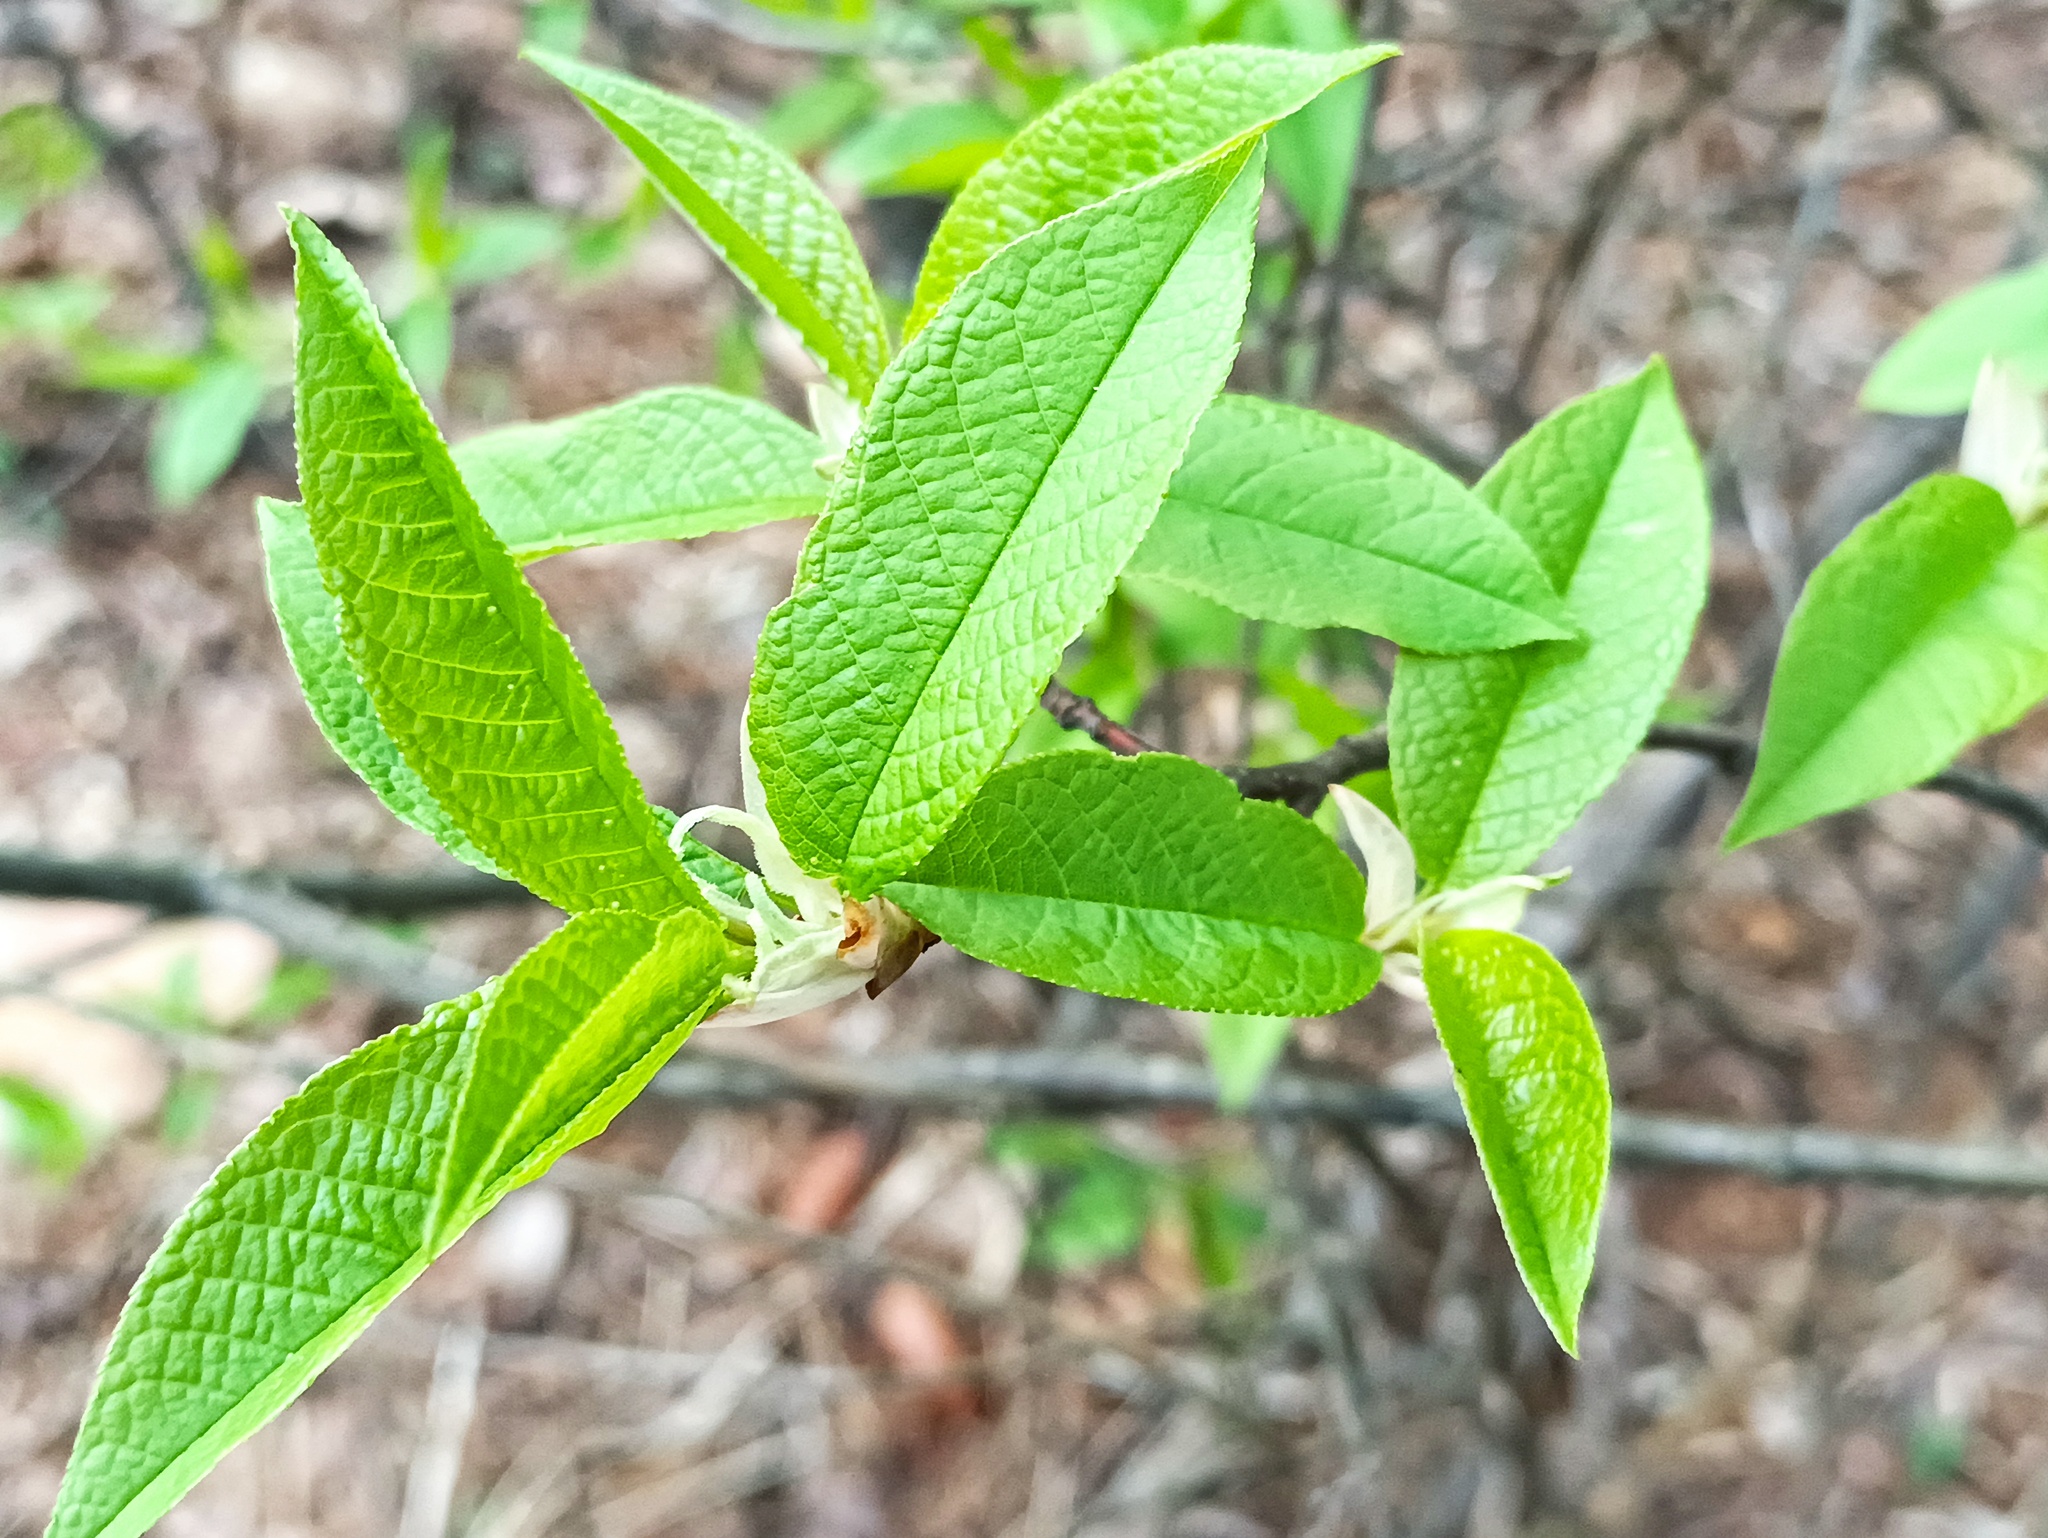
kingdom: Plantae
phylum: Tracheophyta
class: Magnoliopsida
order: Rosales
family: Rosaceae
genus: Prunus
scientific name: Prunus padus
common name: Bird cherry
